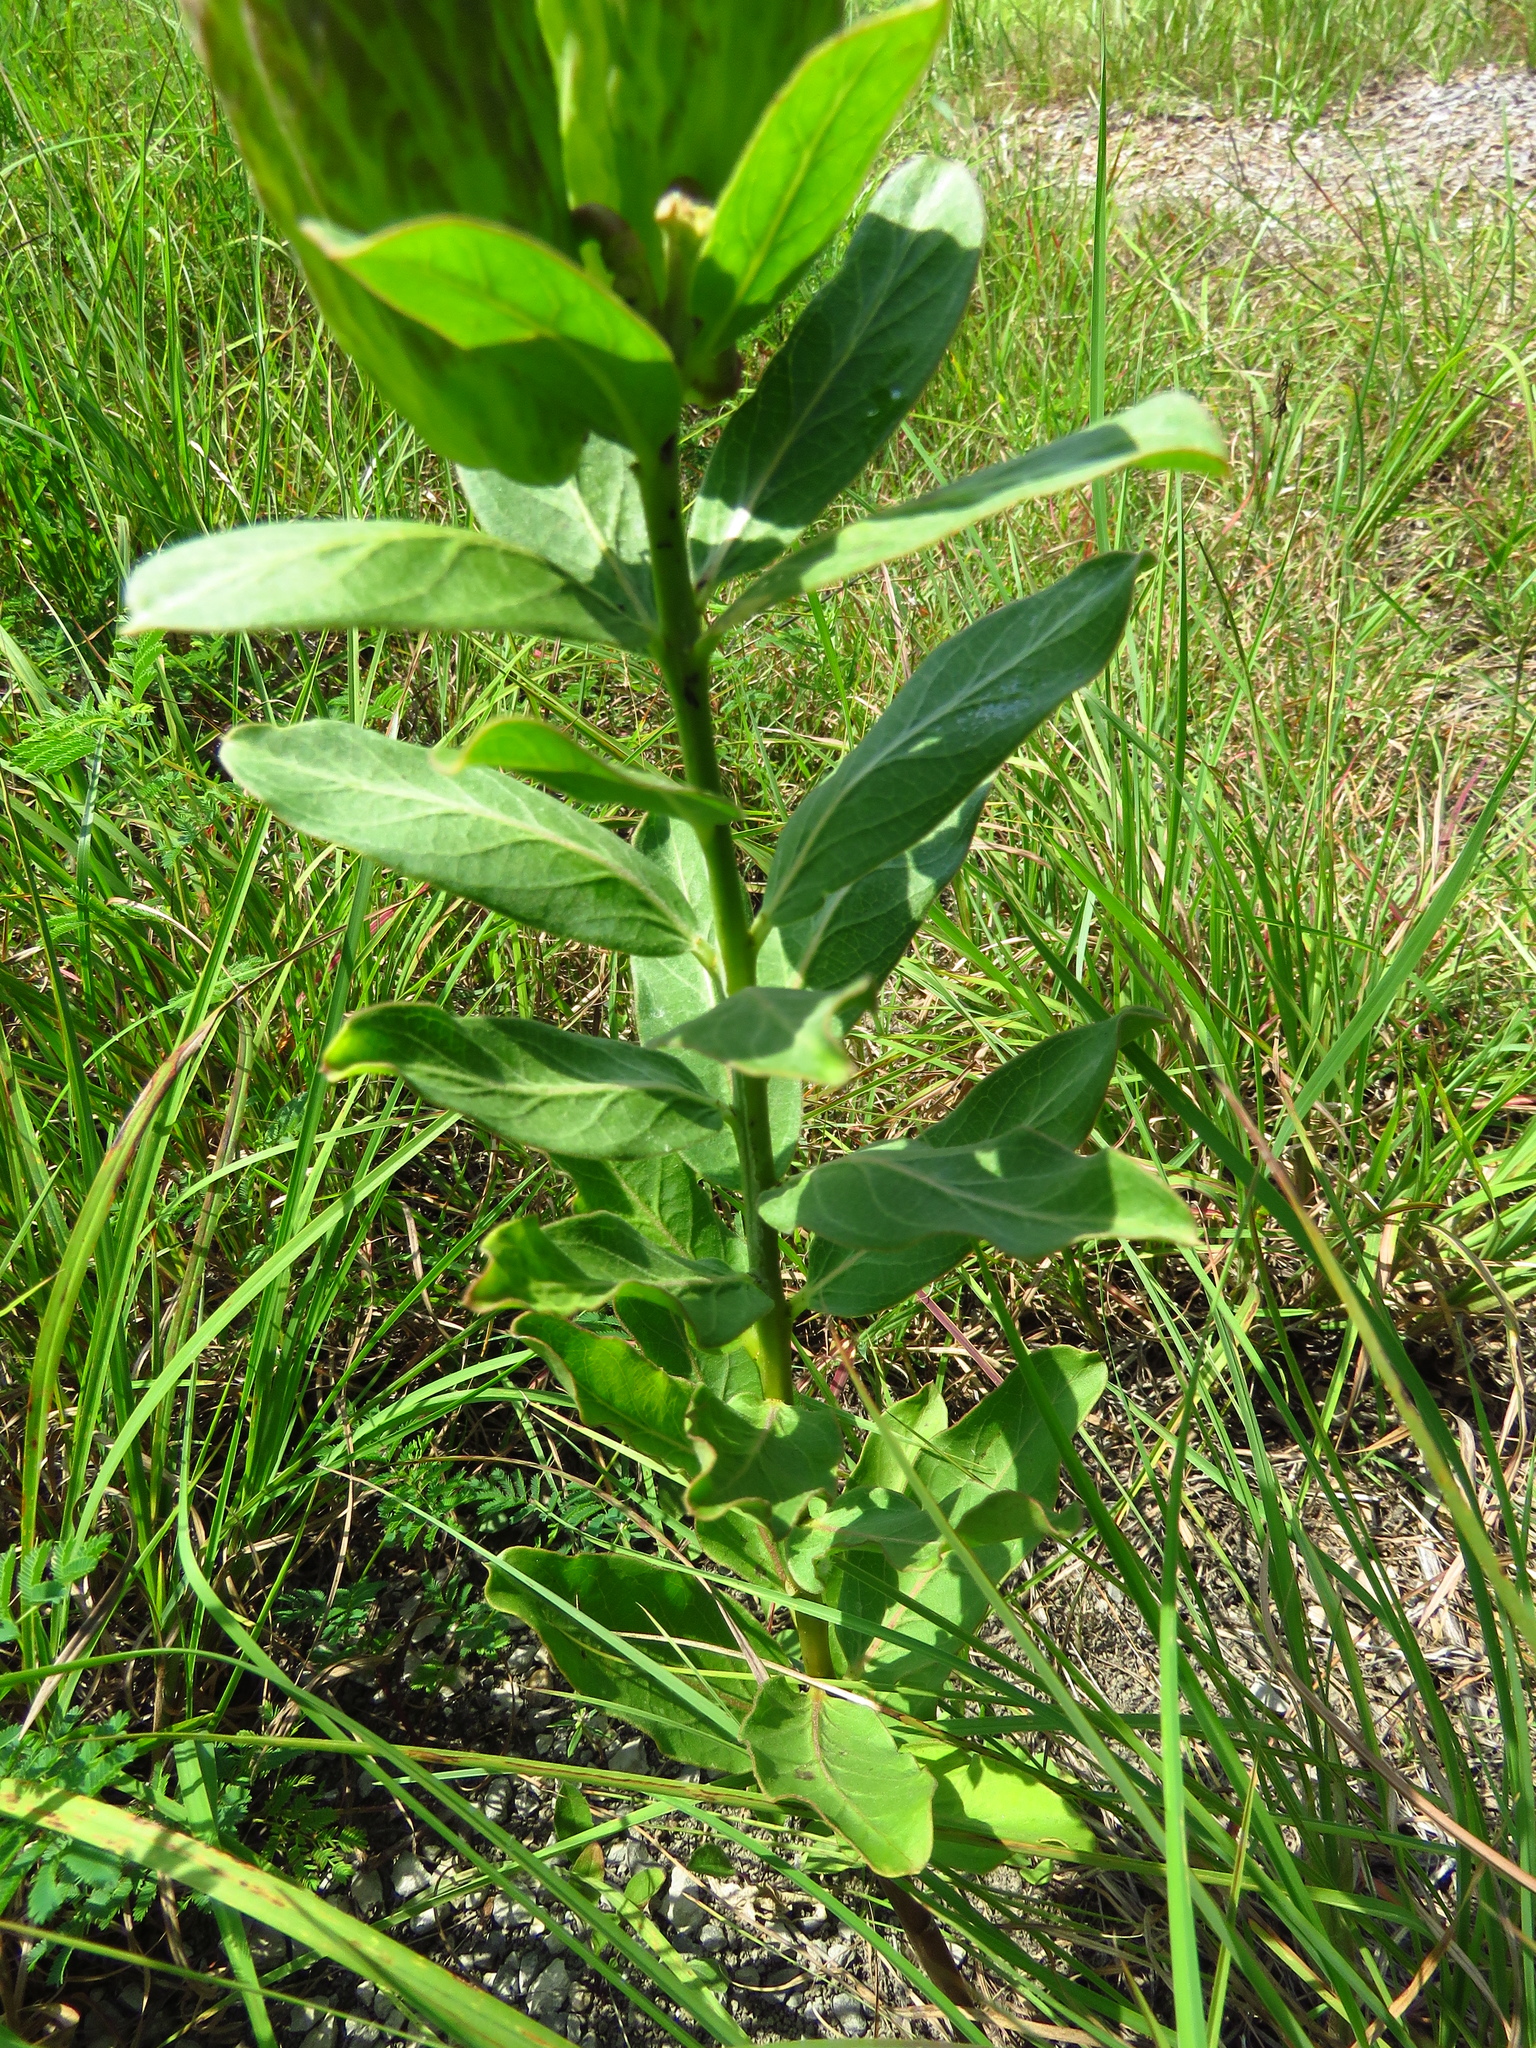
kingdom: Plantae
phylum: Tracheophyta
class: Magnoliopsida
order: Gentianales
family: Apocynaceae
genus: Asclepias
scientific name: Asclepias viridis
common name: Antelope-horns
